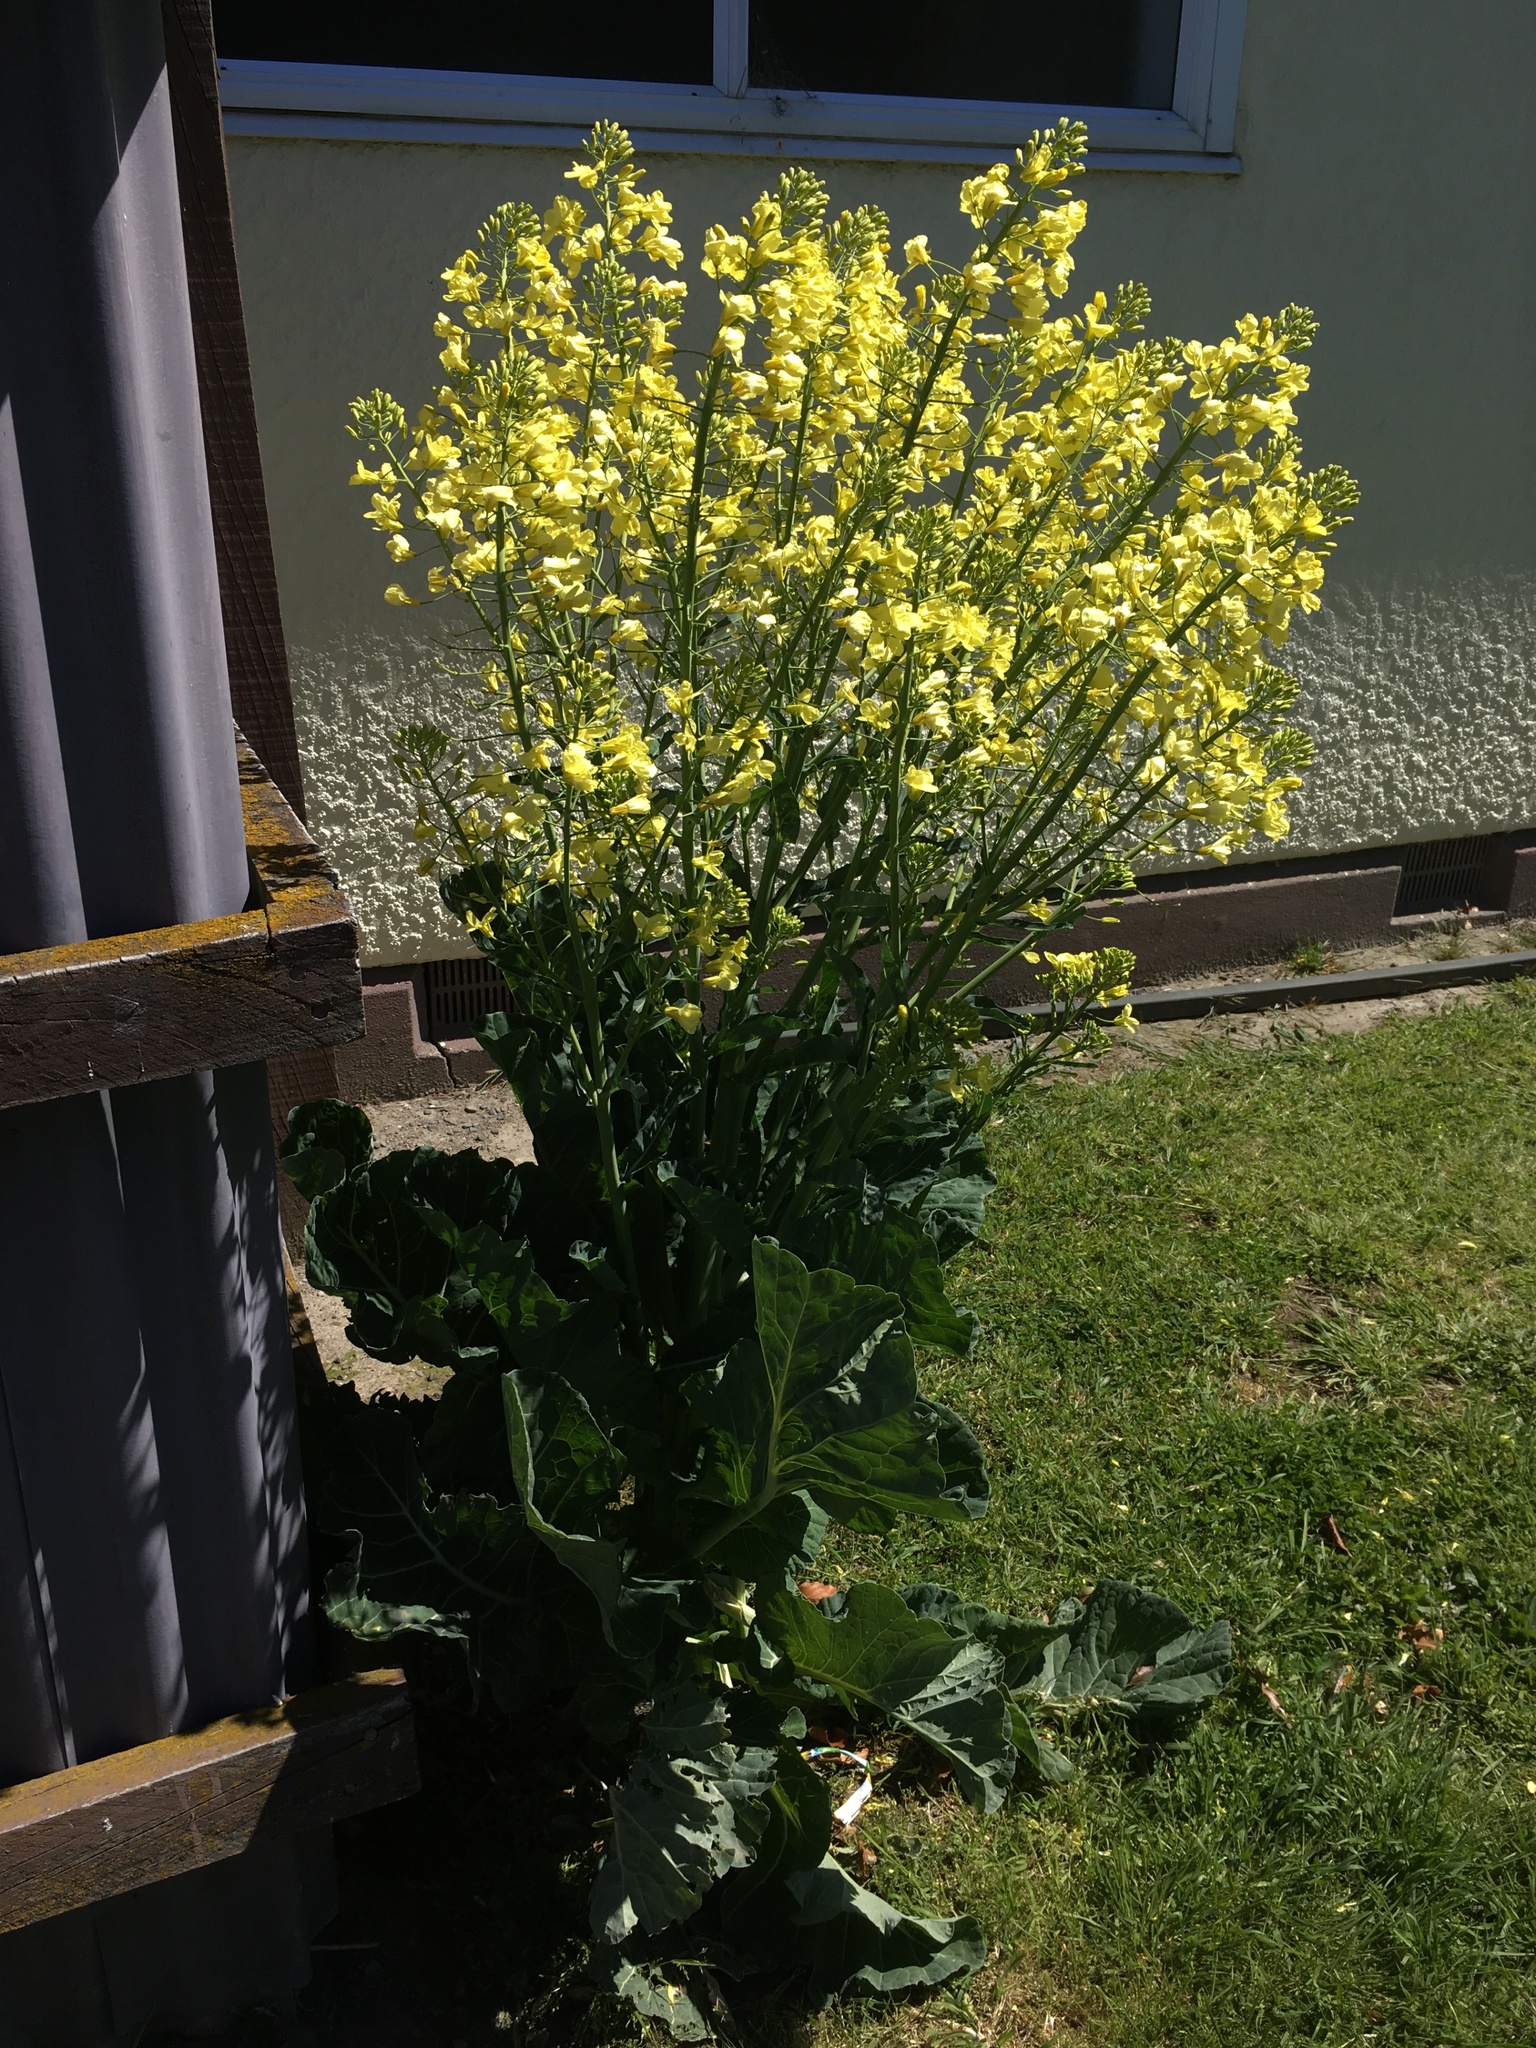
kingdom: Plantae
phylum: Tracheophyta
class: Magnoliopsida
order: Brassicales
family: Brassicaceae
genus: Brassica
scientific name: Brassica oleracea
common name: Cabbage
